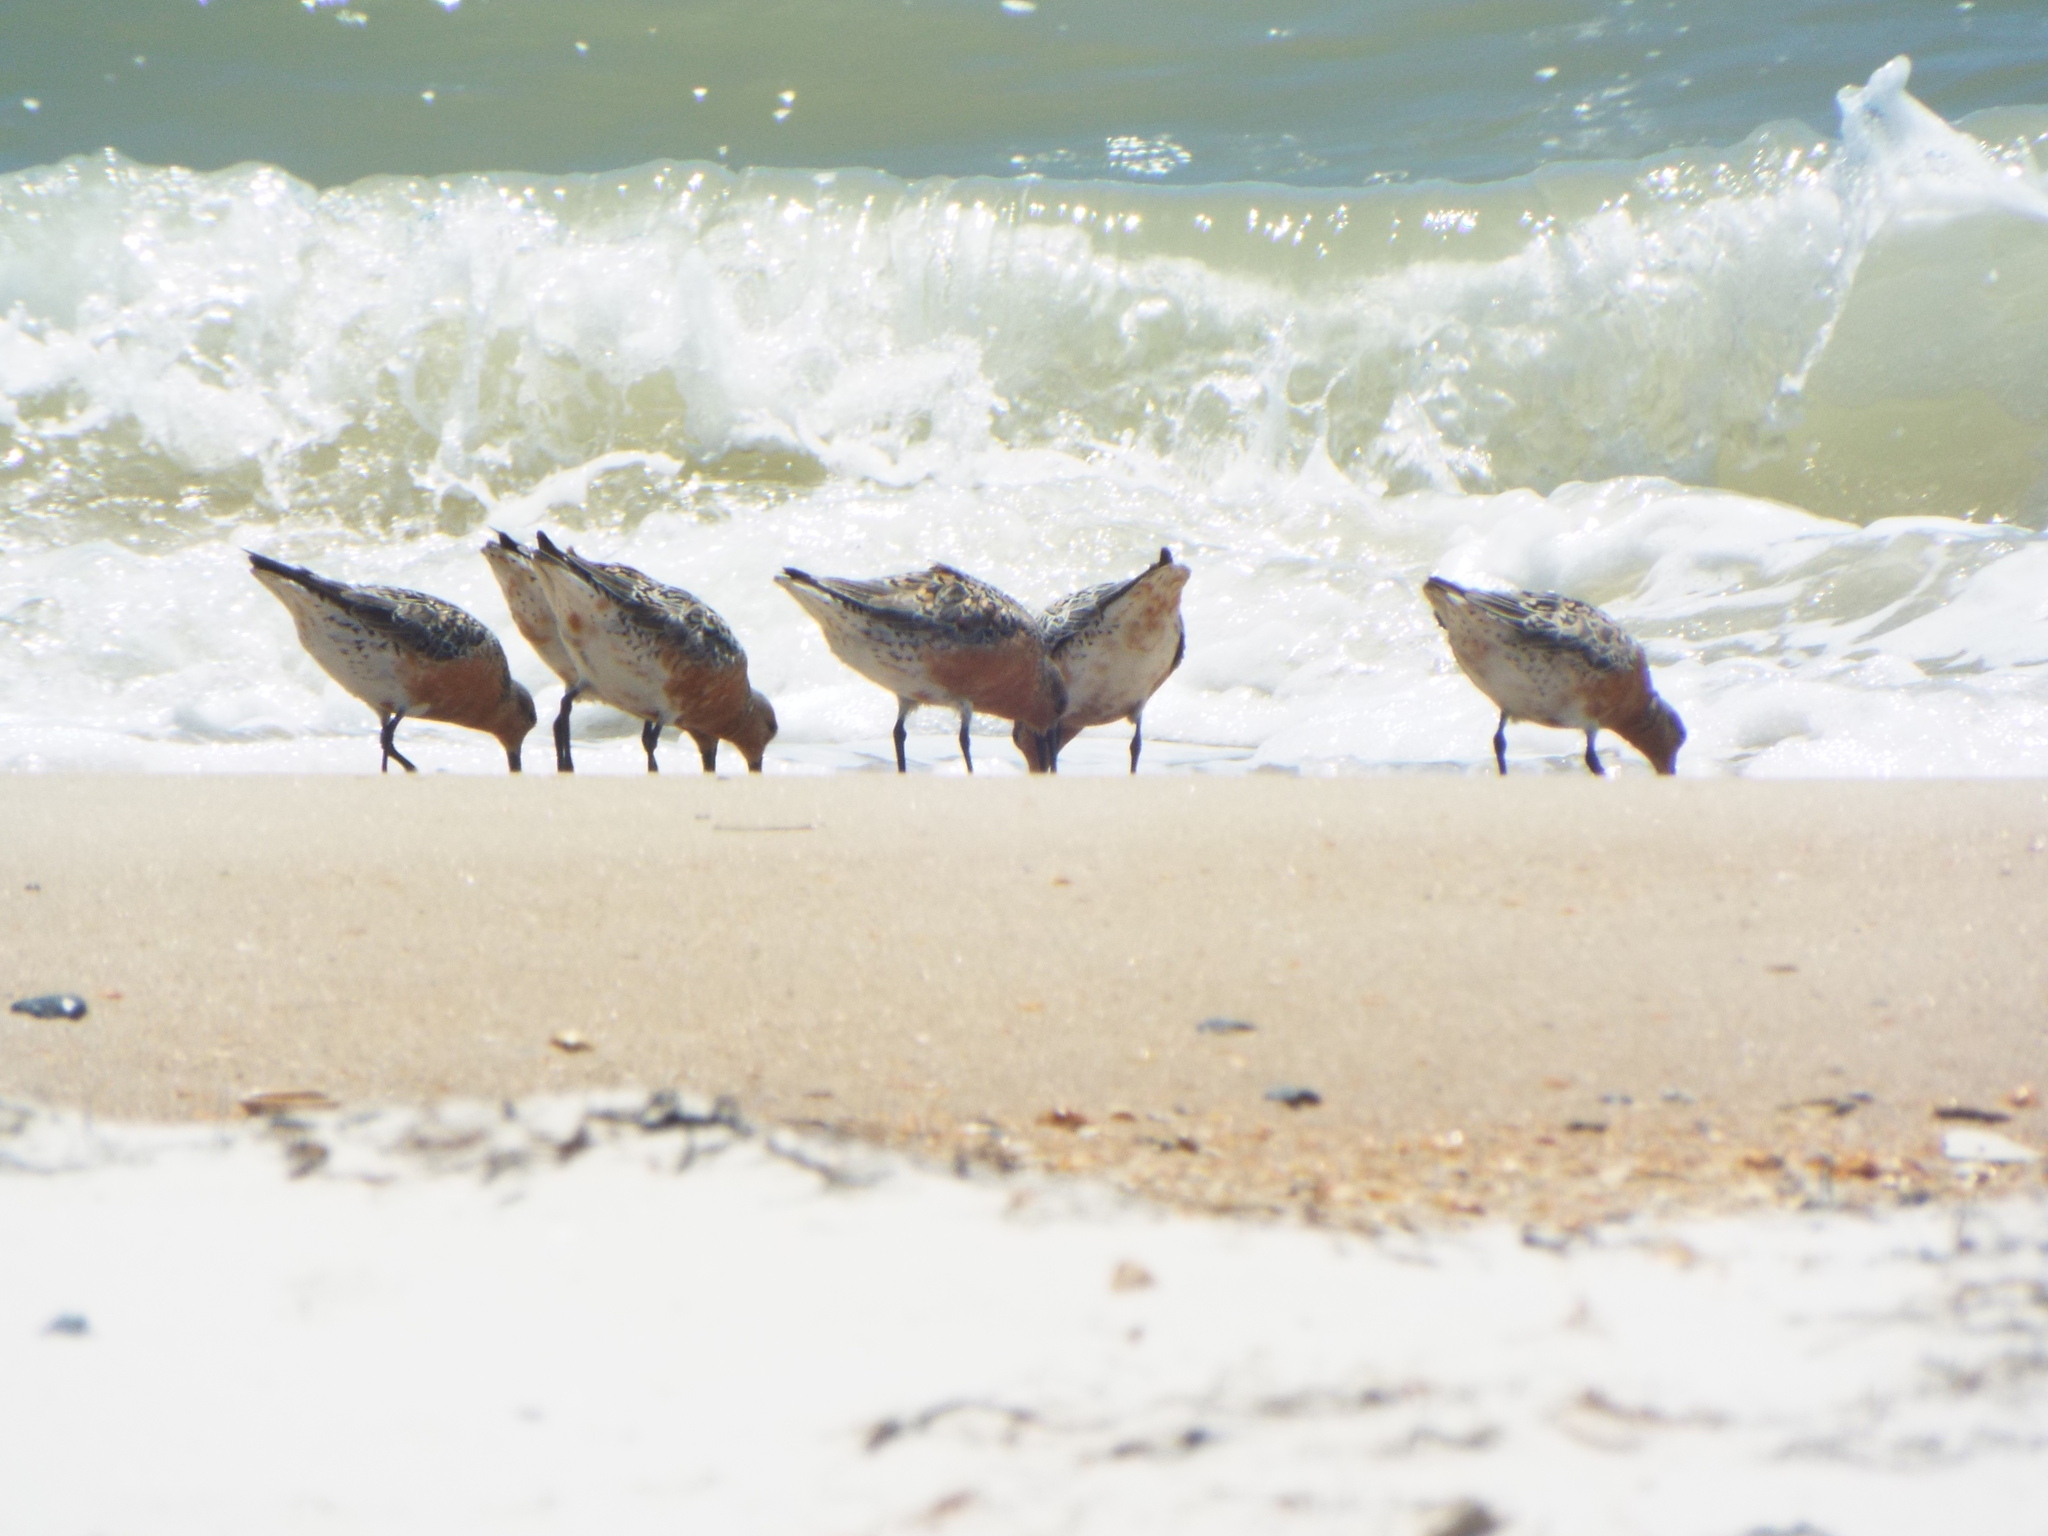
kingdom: Animalia
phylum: Chordata
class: Aves
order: Charadriiformes
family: Scolopacidae
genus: Calidris
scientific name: Calidris canutus
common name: Red knot
